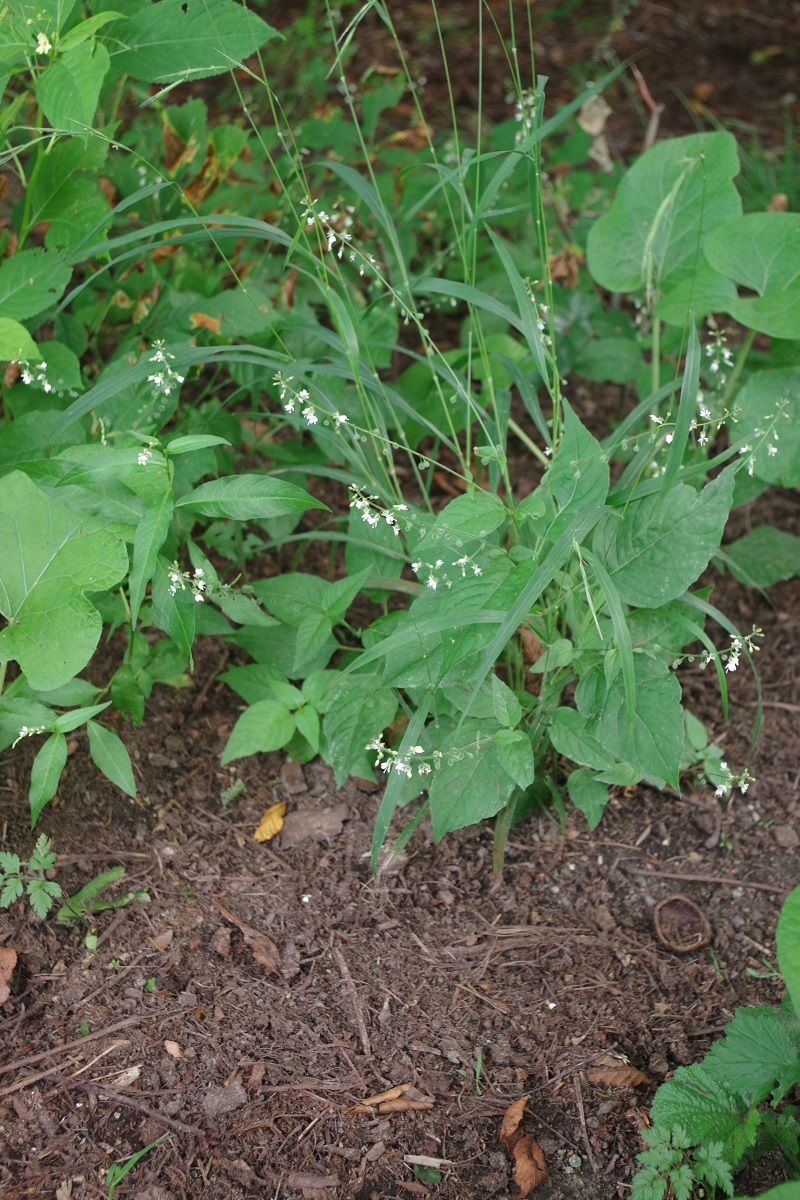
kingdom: Plantae
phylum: Tracheophyta
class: Magnoliopsida
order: Myrtales
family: Onagraceae
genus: Circaea
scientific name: Circaea lutetiana
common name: Enchanter's-nightshade
